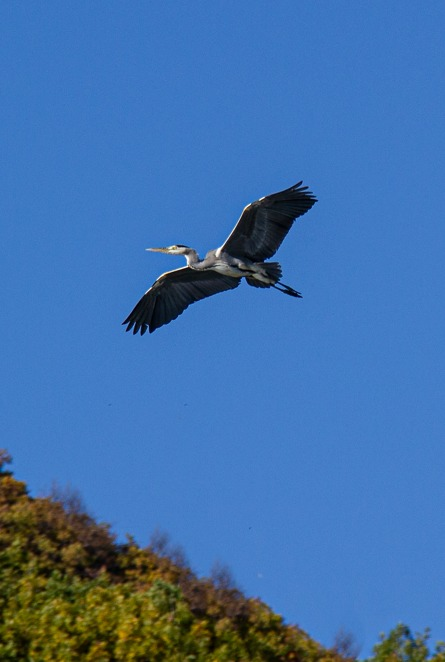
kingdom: Animalia
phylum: Chordata
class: Aves
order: Pelecaniformes
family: Ardeidae
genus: Ardea
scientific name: Ardea cinerea
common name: Grey heron
